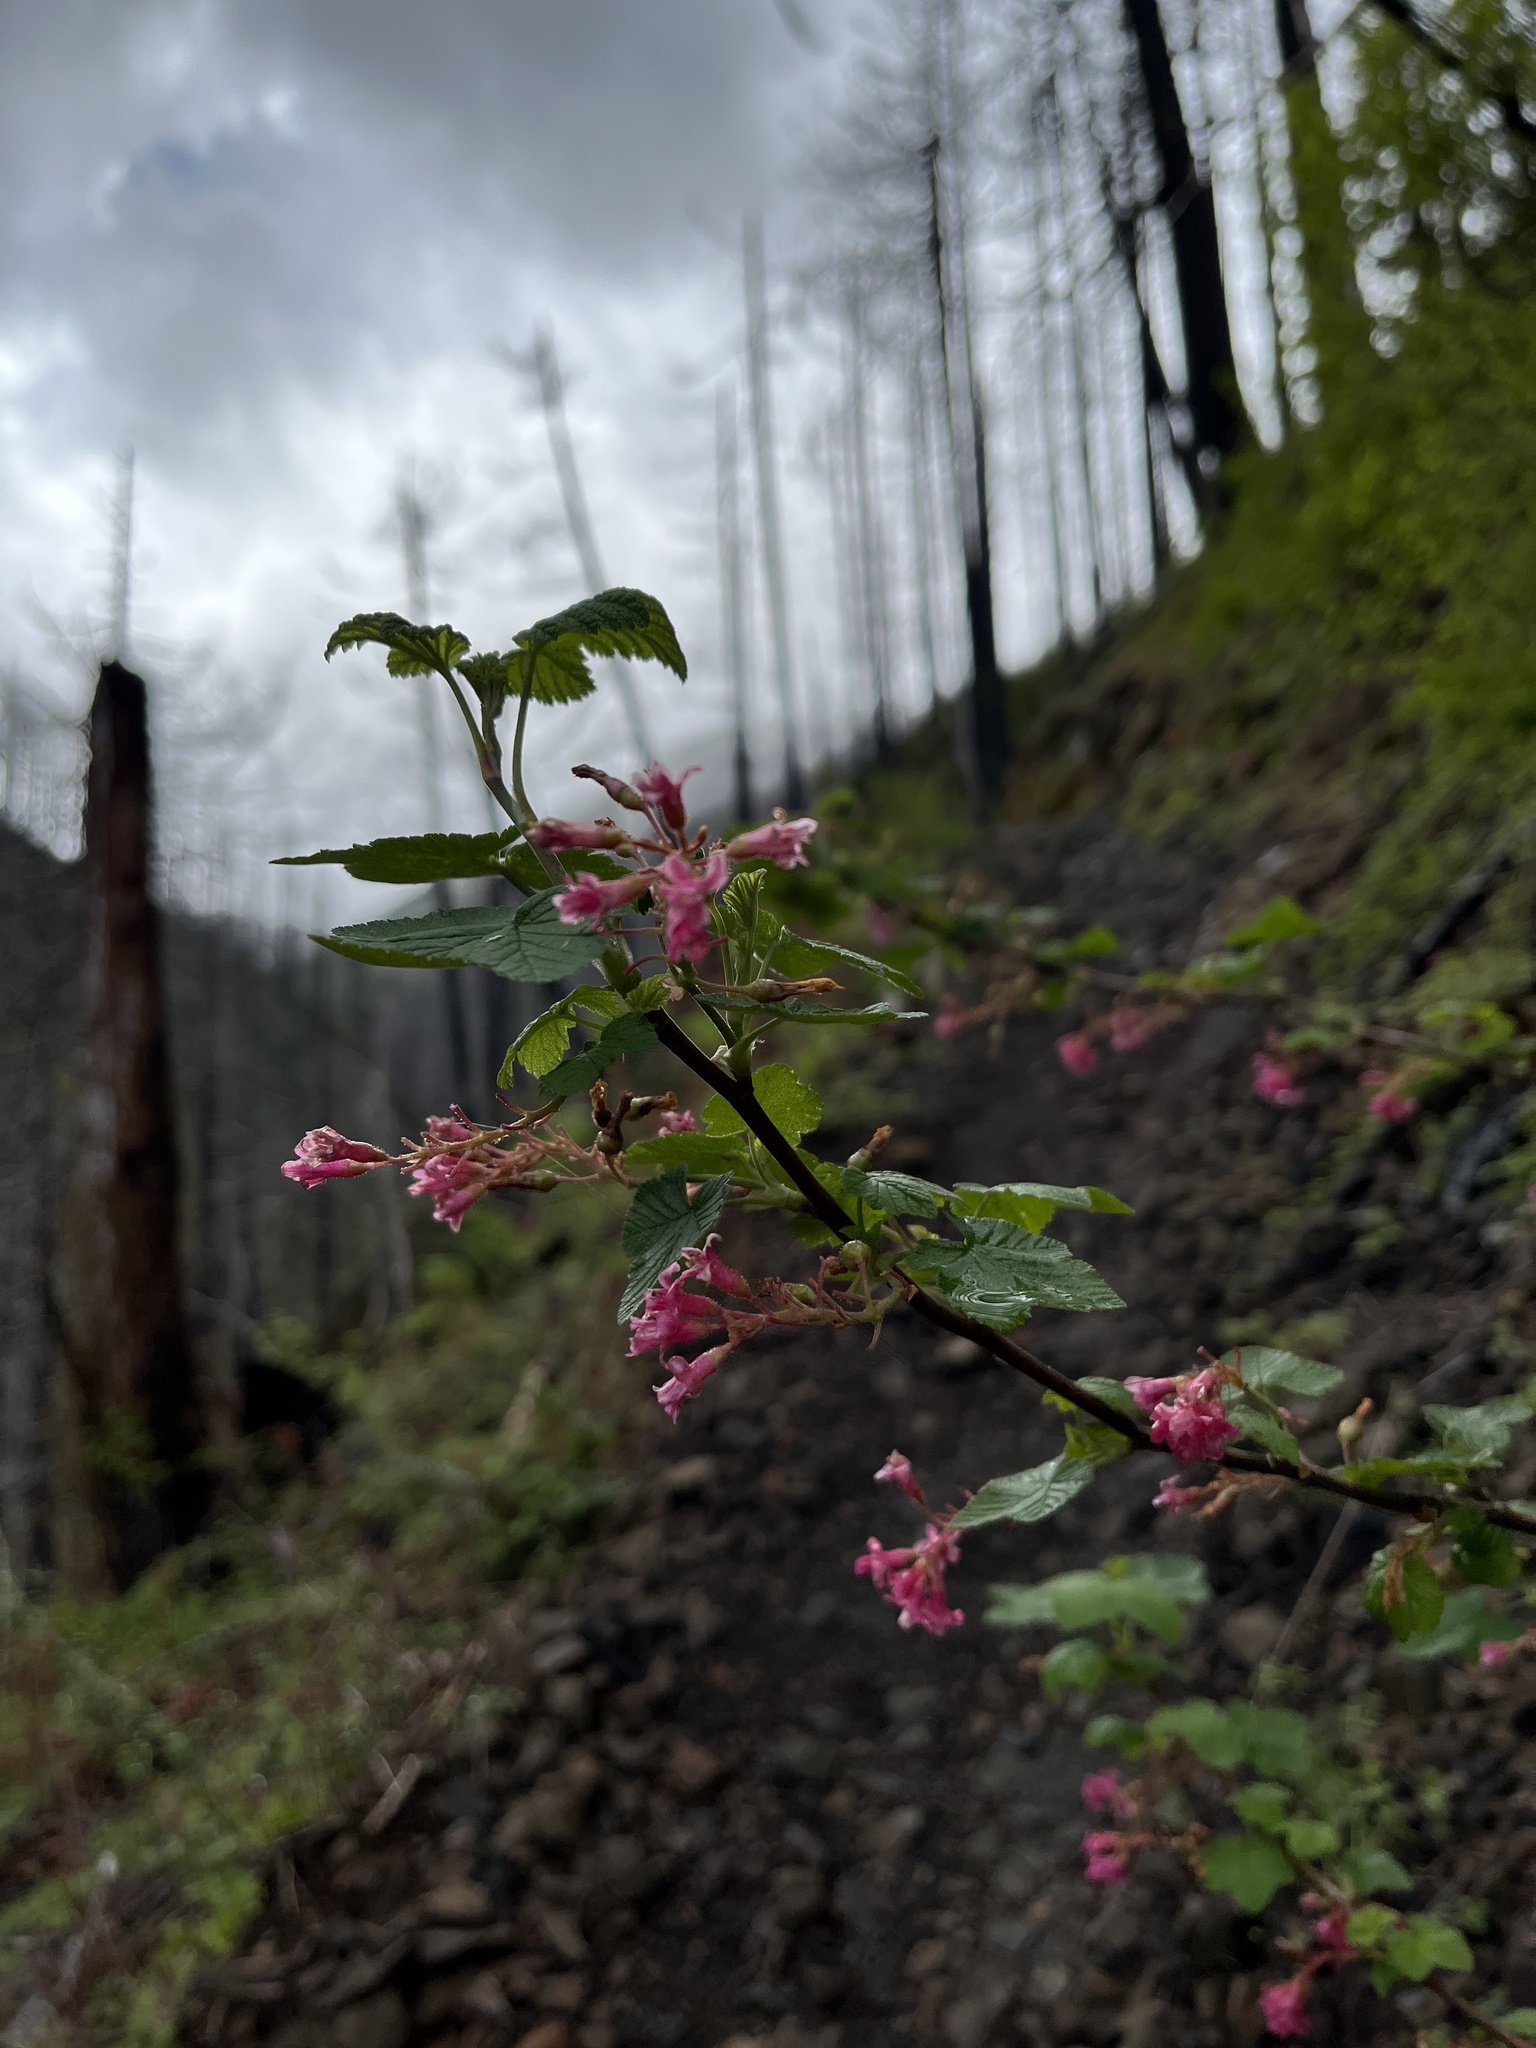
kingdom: Plantae
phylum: Tracheophyta
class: Magnoliopsida
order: Saxifragales
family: Grossulariaceae
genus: Ribes
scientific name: Ribes sanguineum
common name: Flowering currant
